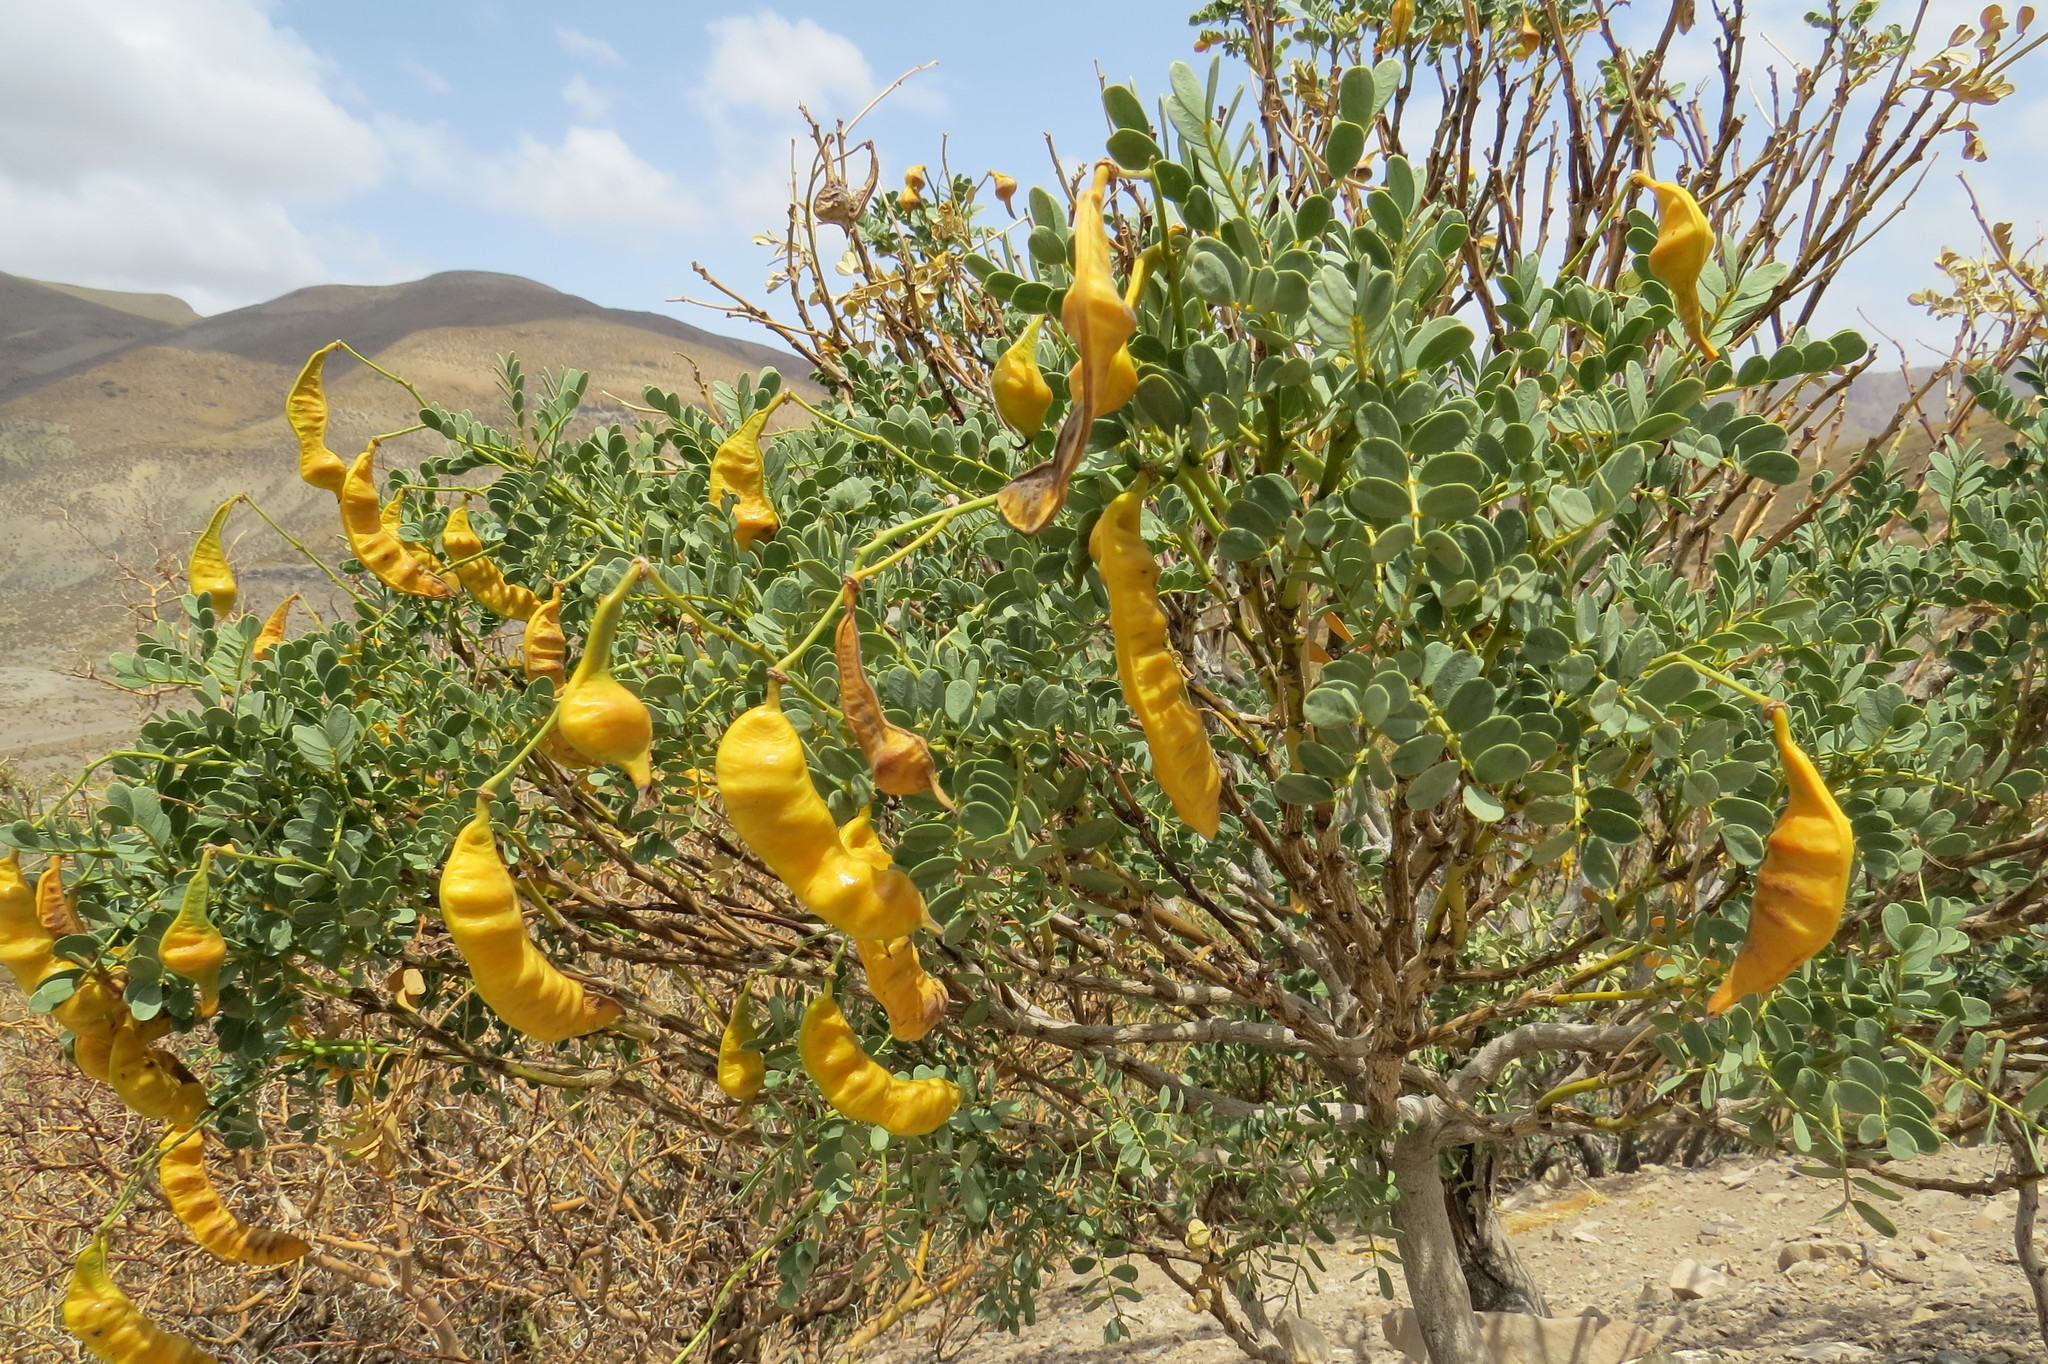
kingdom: Plantae
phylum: Tracheophyta
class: Magnoliopsida
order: Fabales
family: Fabaceae
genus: Senna
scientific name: Senna arnottiana
